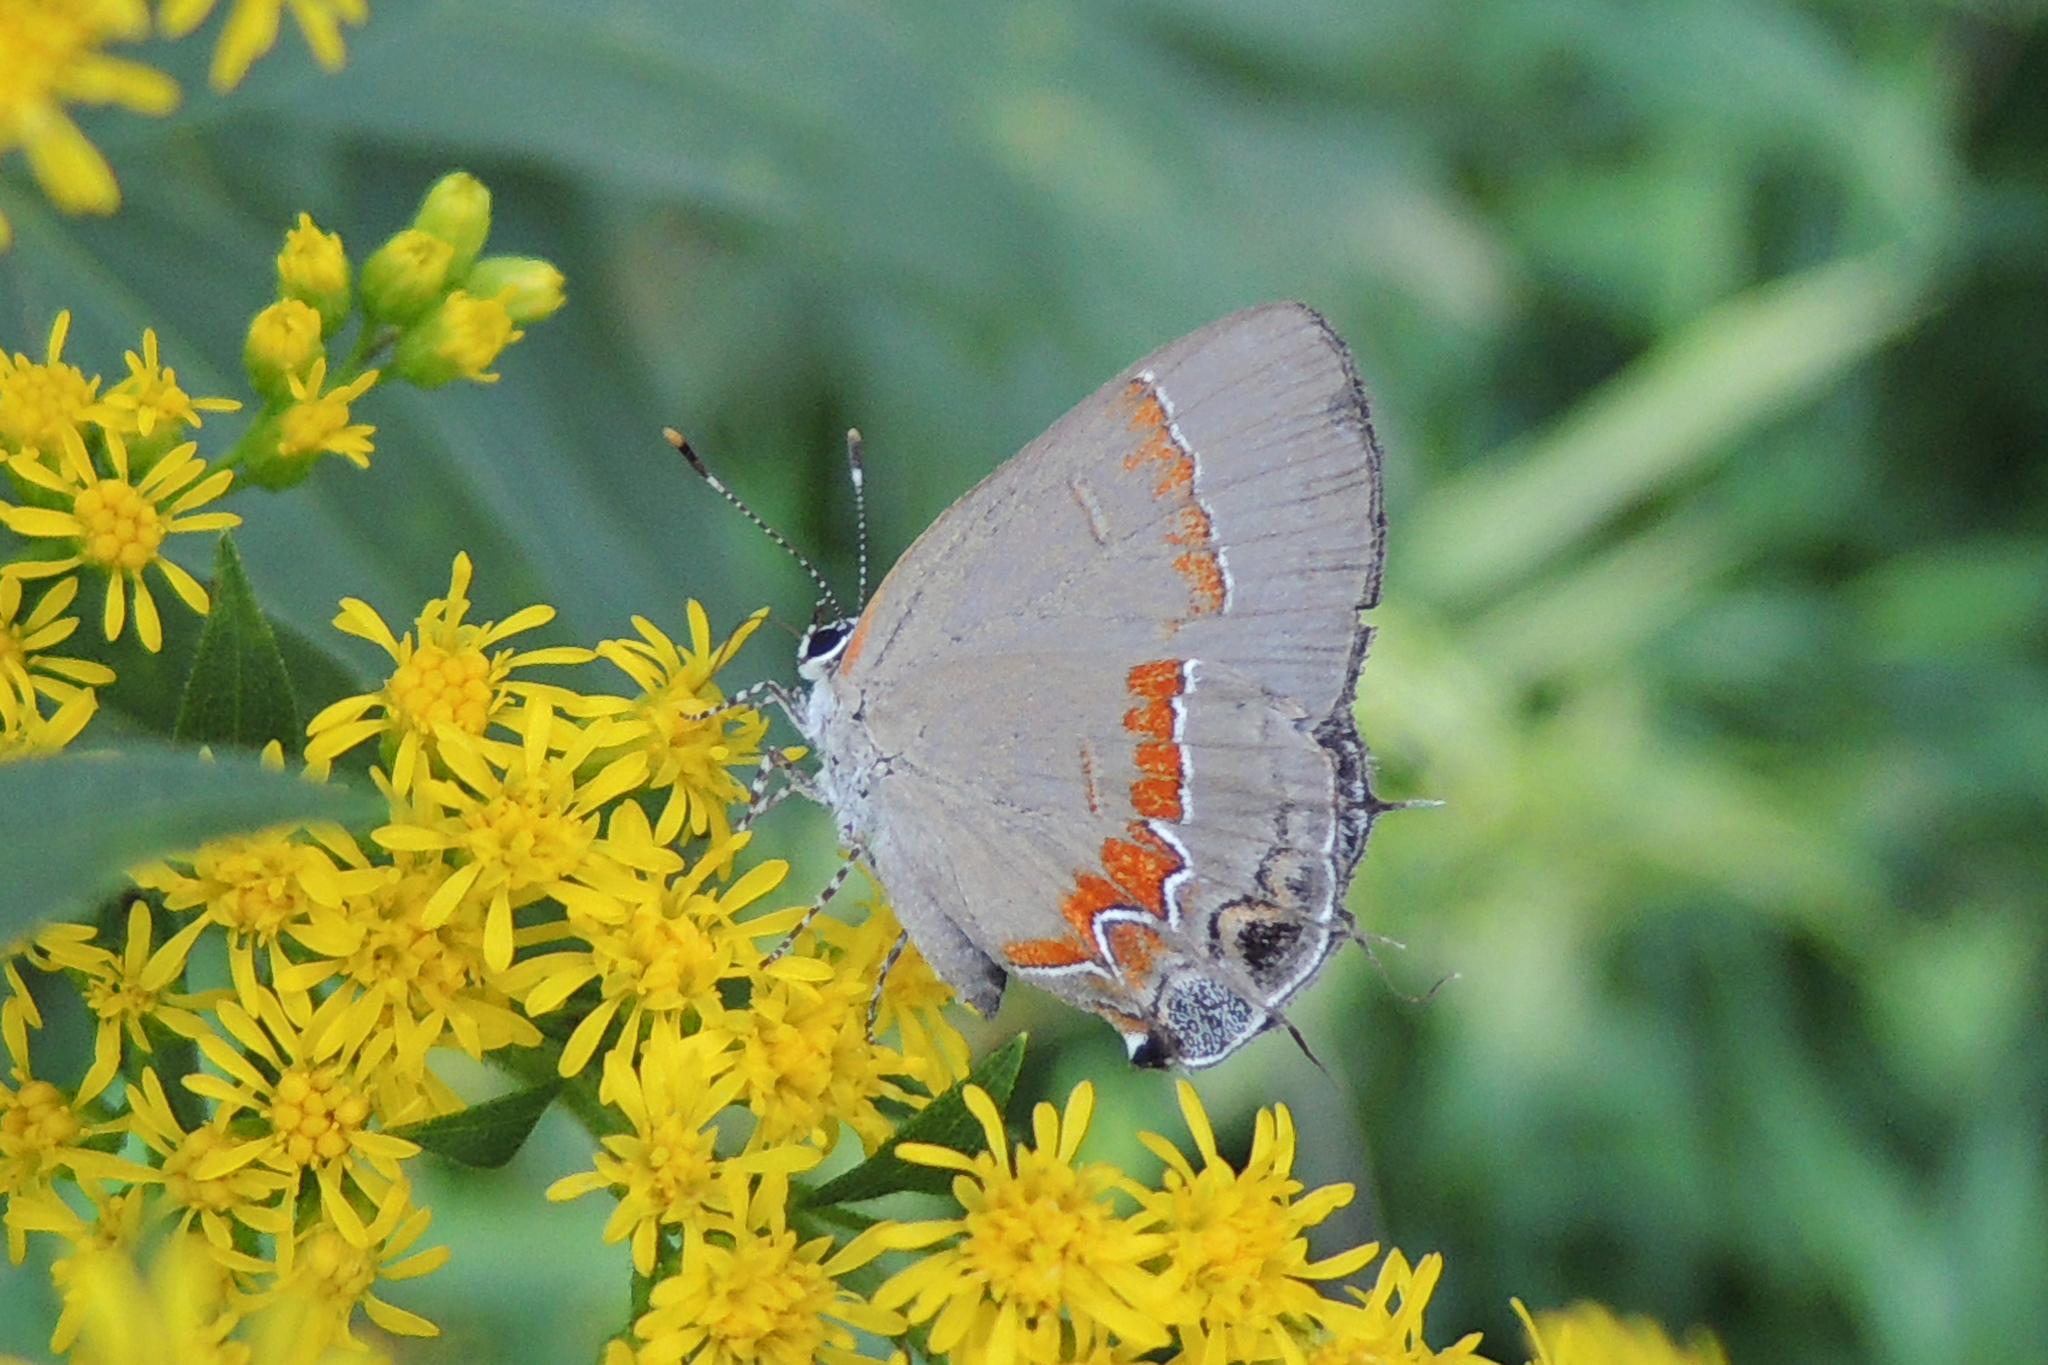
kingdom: Animalia
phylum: Arthropoda
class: Insecta
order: Lepidoptera
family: Lycaenidae
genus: Calycopis
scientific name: Calycopis cecrops
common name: Red-banded hairstreak
